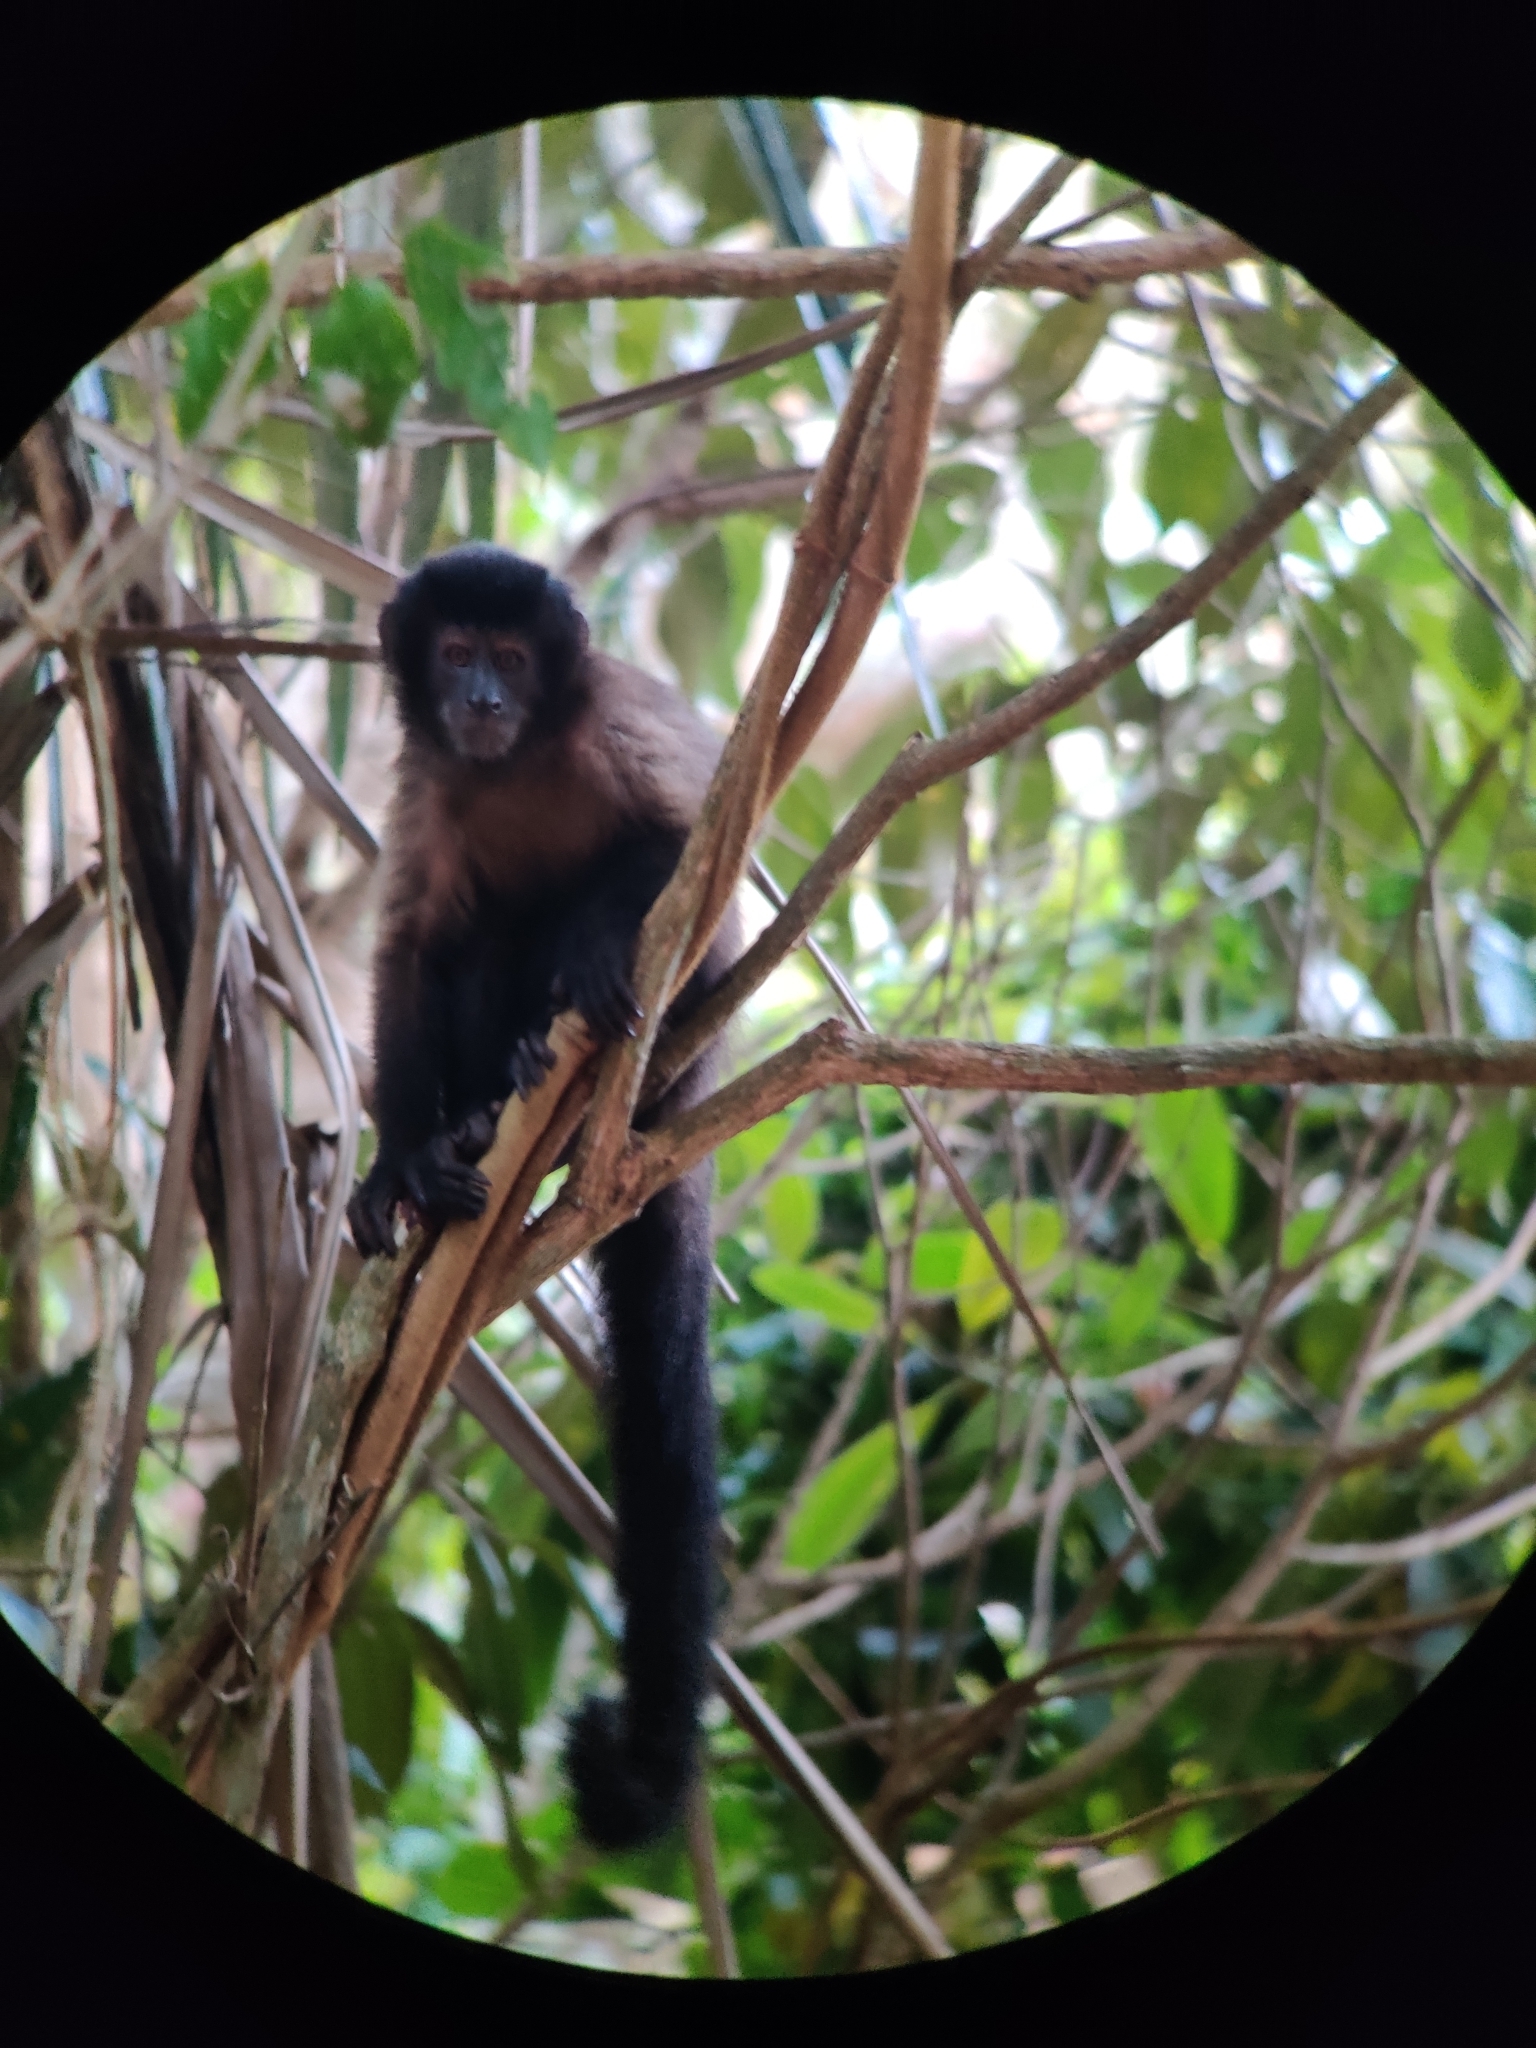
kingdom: Animalia
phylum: Chordata
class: Mammalia
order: Primates
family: Cebidae
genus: Sapajus
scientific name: Sapajus nigritus
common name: Black capuchin
